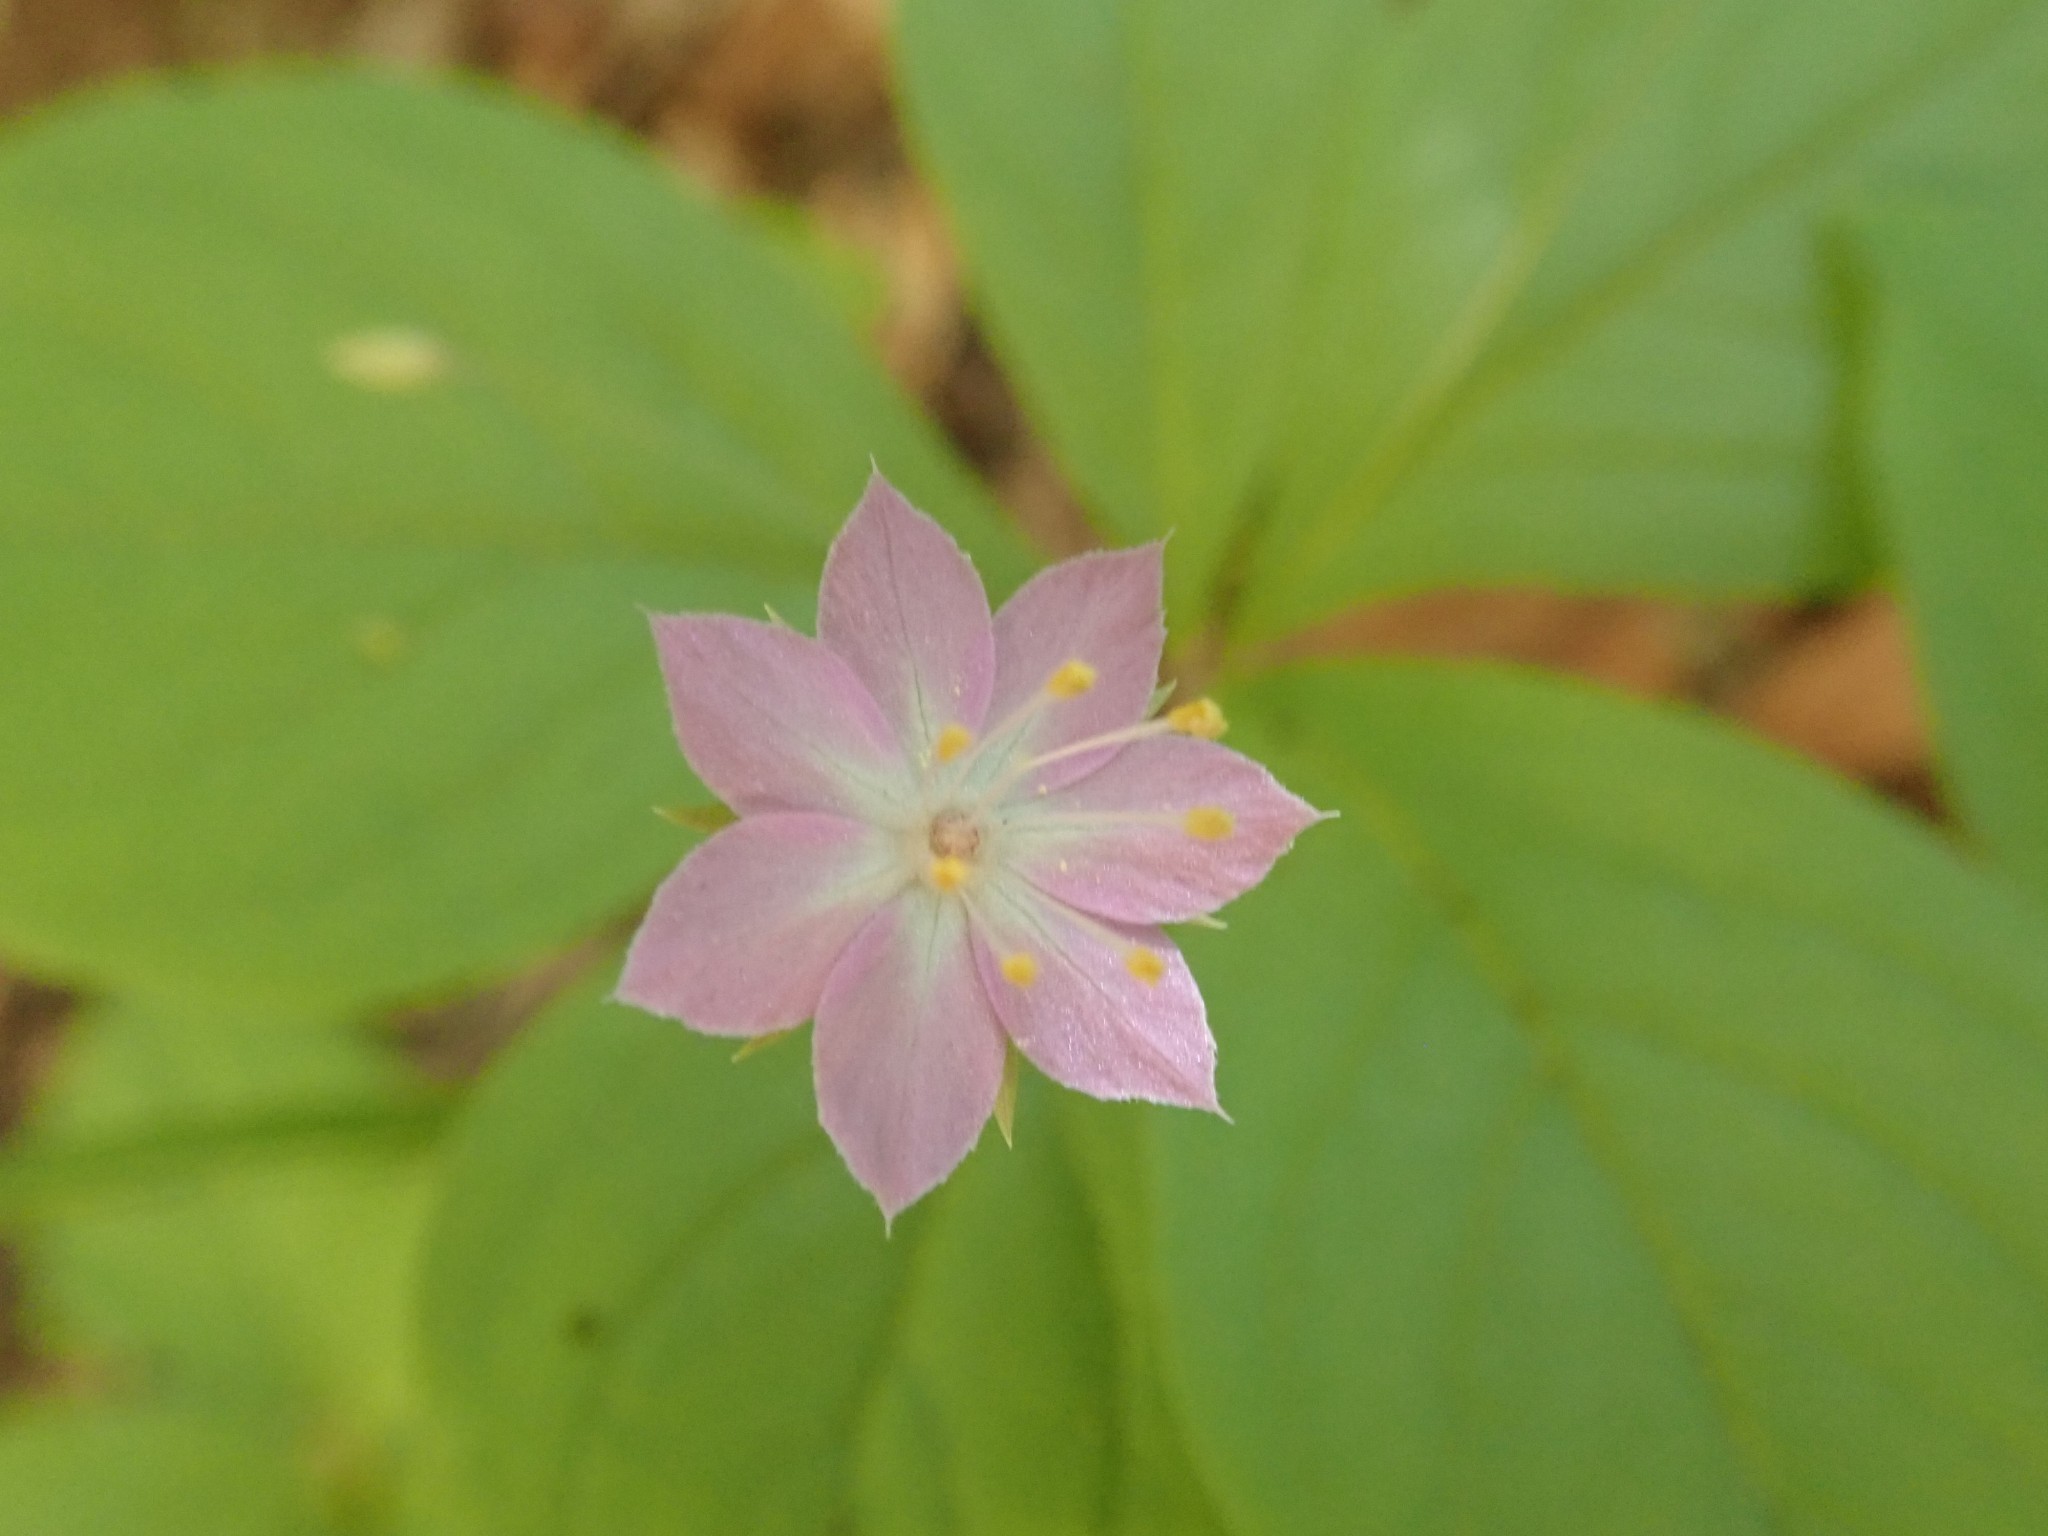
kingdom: Plantae
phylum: Tracheophyta
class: Magnoliopsida
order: Ericales
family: Primulaceae
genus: Lysimachia
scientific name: Lysimachia latifolia
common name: Pacific starflower
